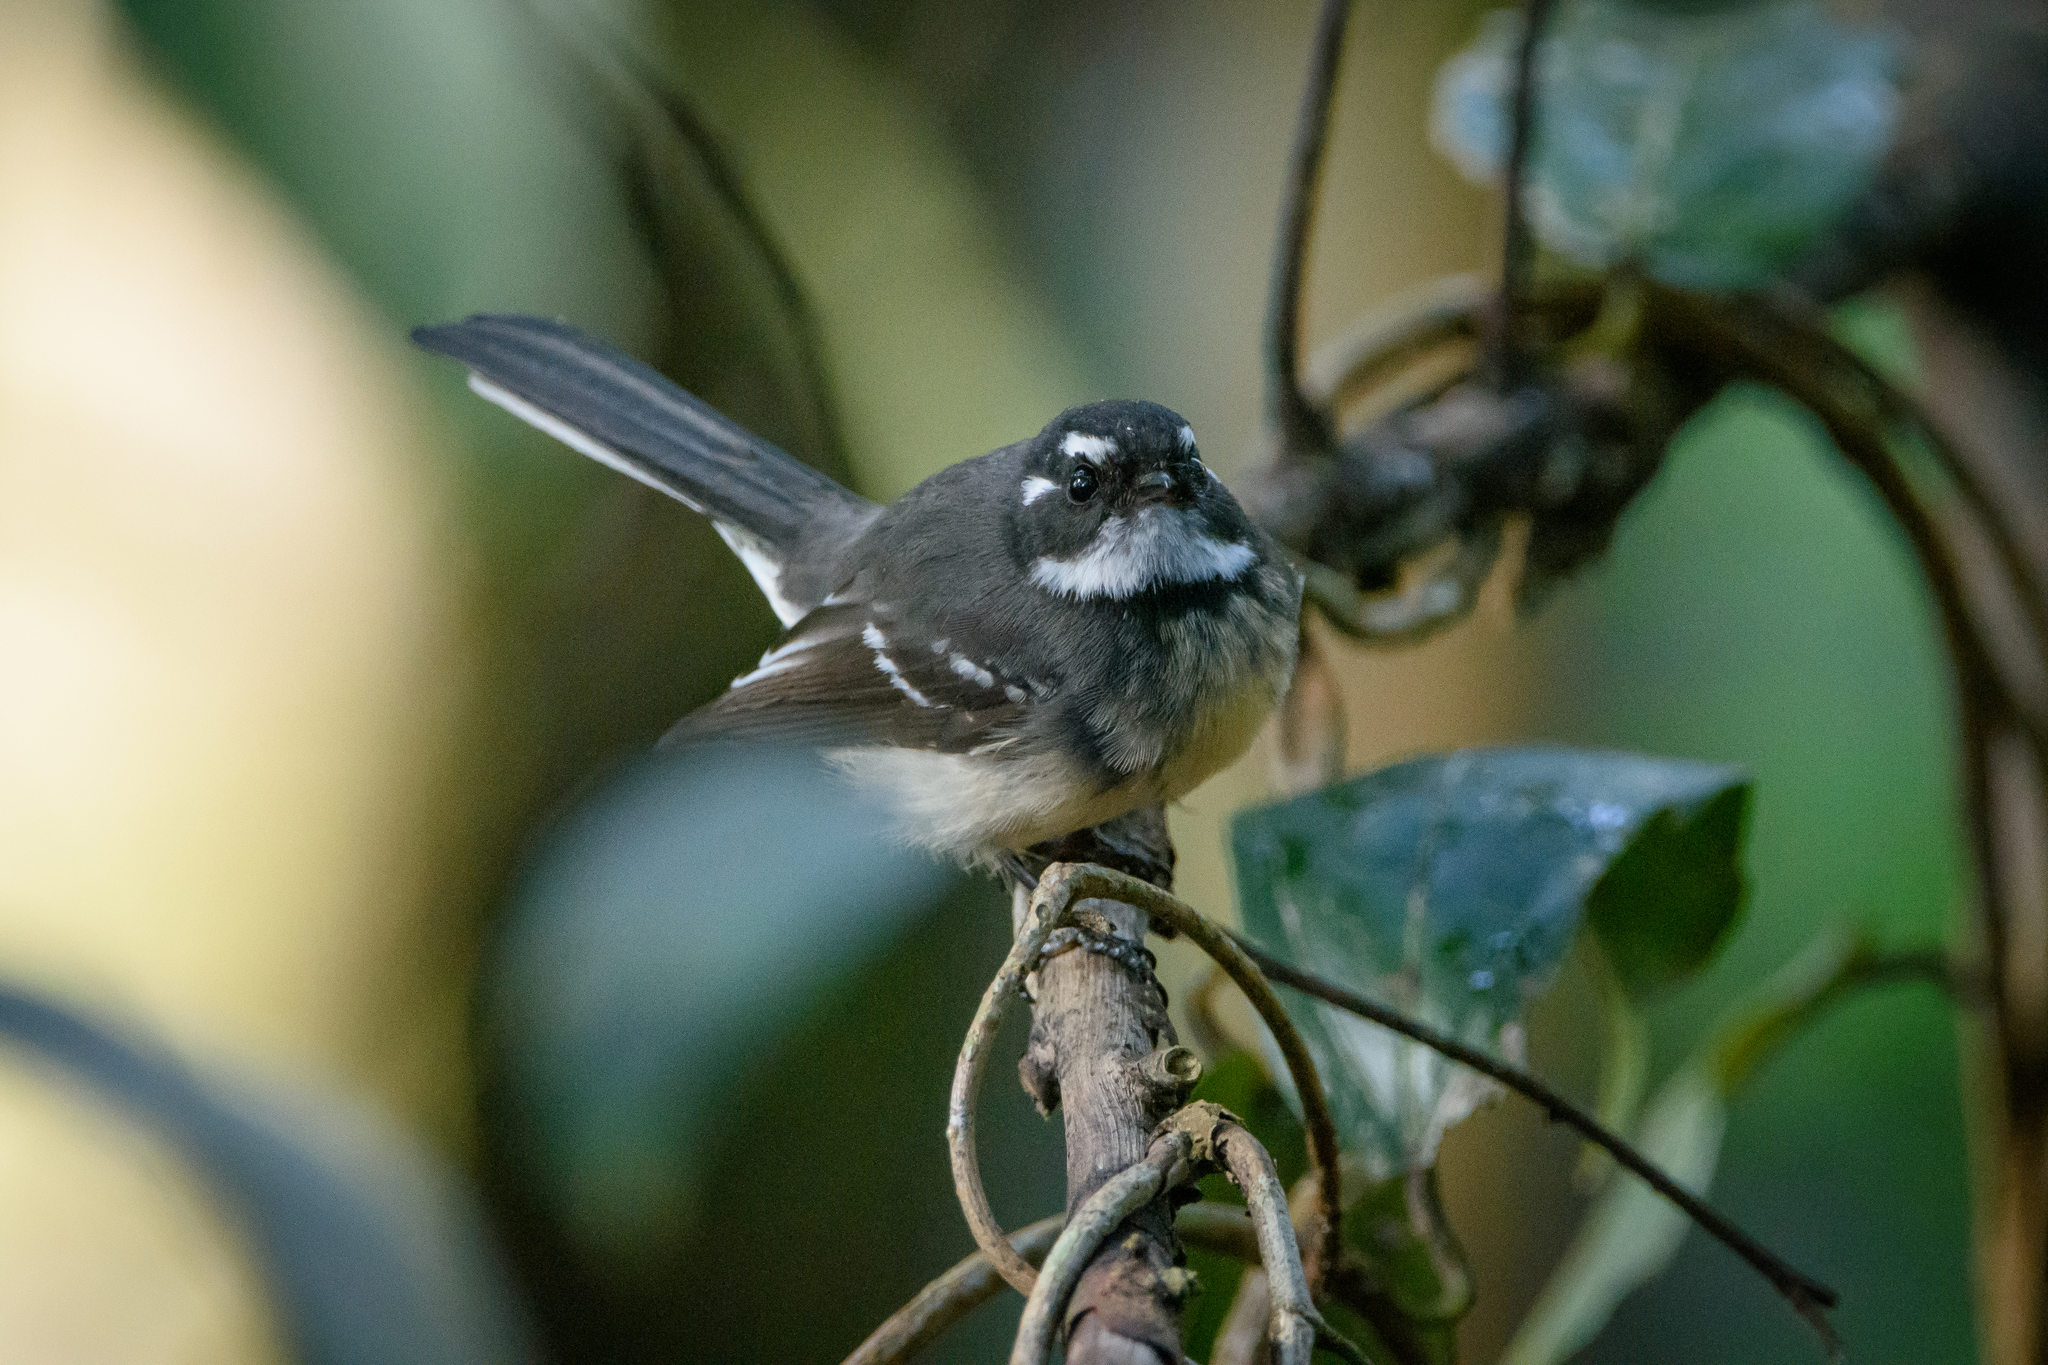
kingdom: Animalia
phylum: Chordata
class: Aves
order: Passeriformes
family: Rhipiduridae
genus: Rhipidura
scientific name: Rhipidura albiscapa
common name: Grey fantail
